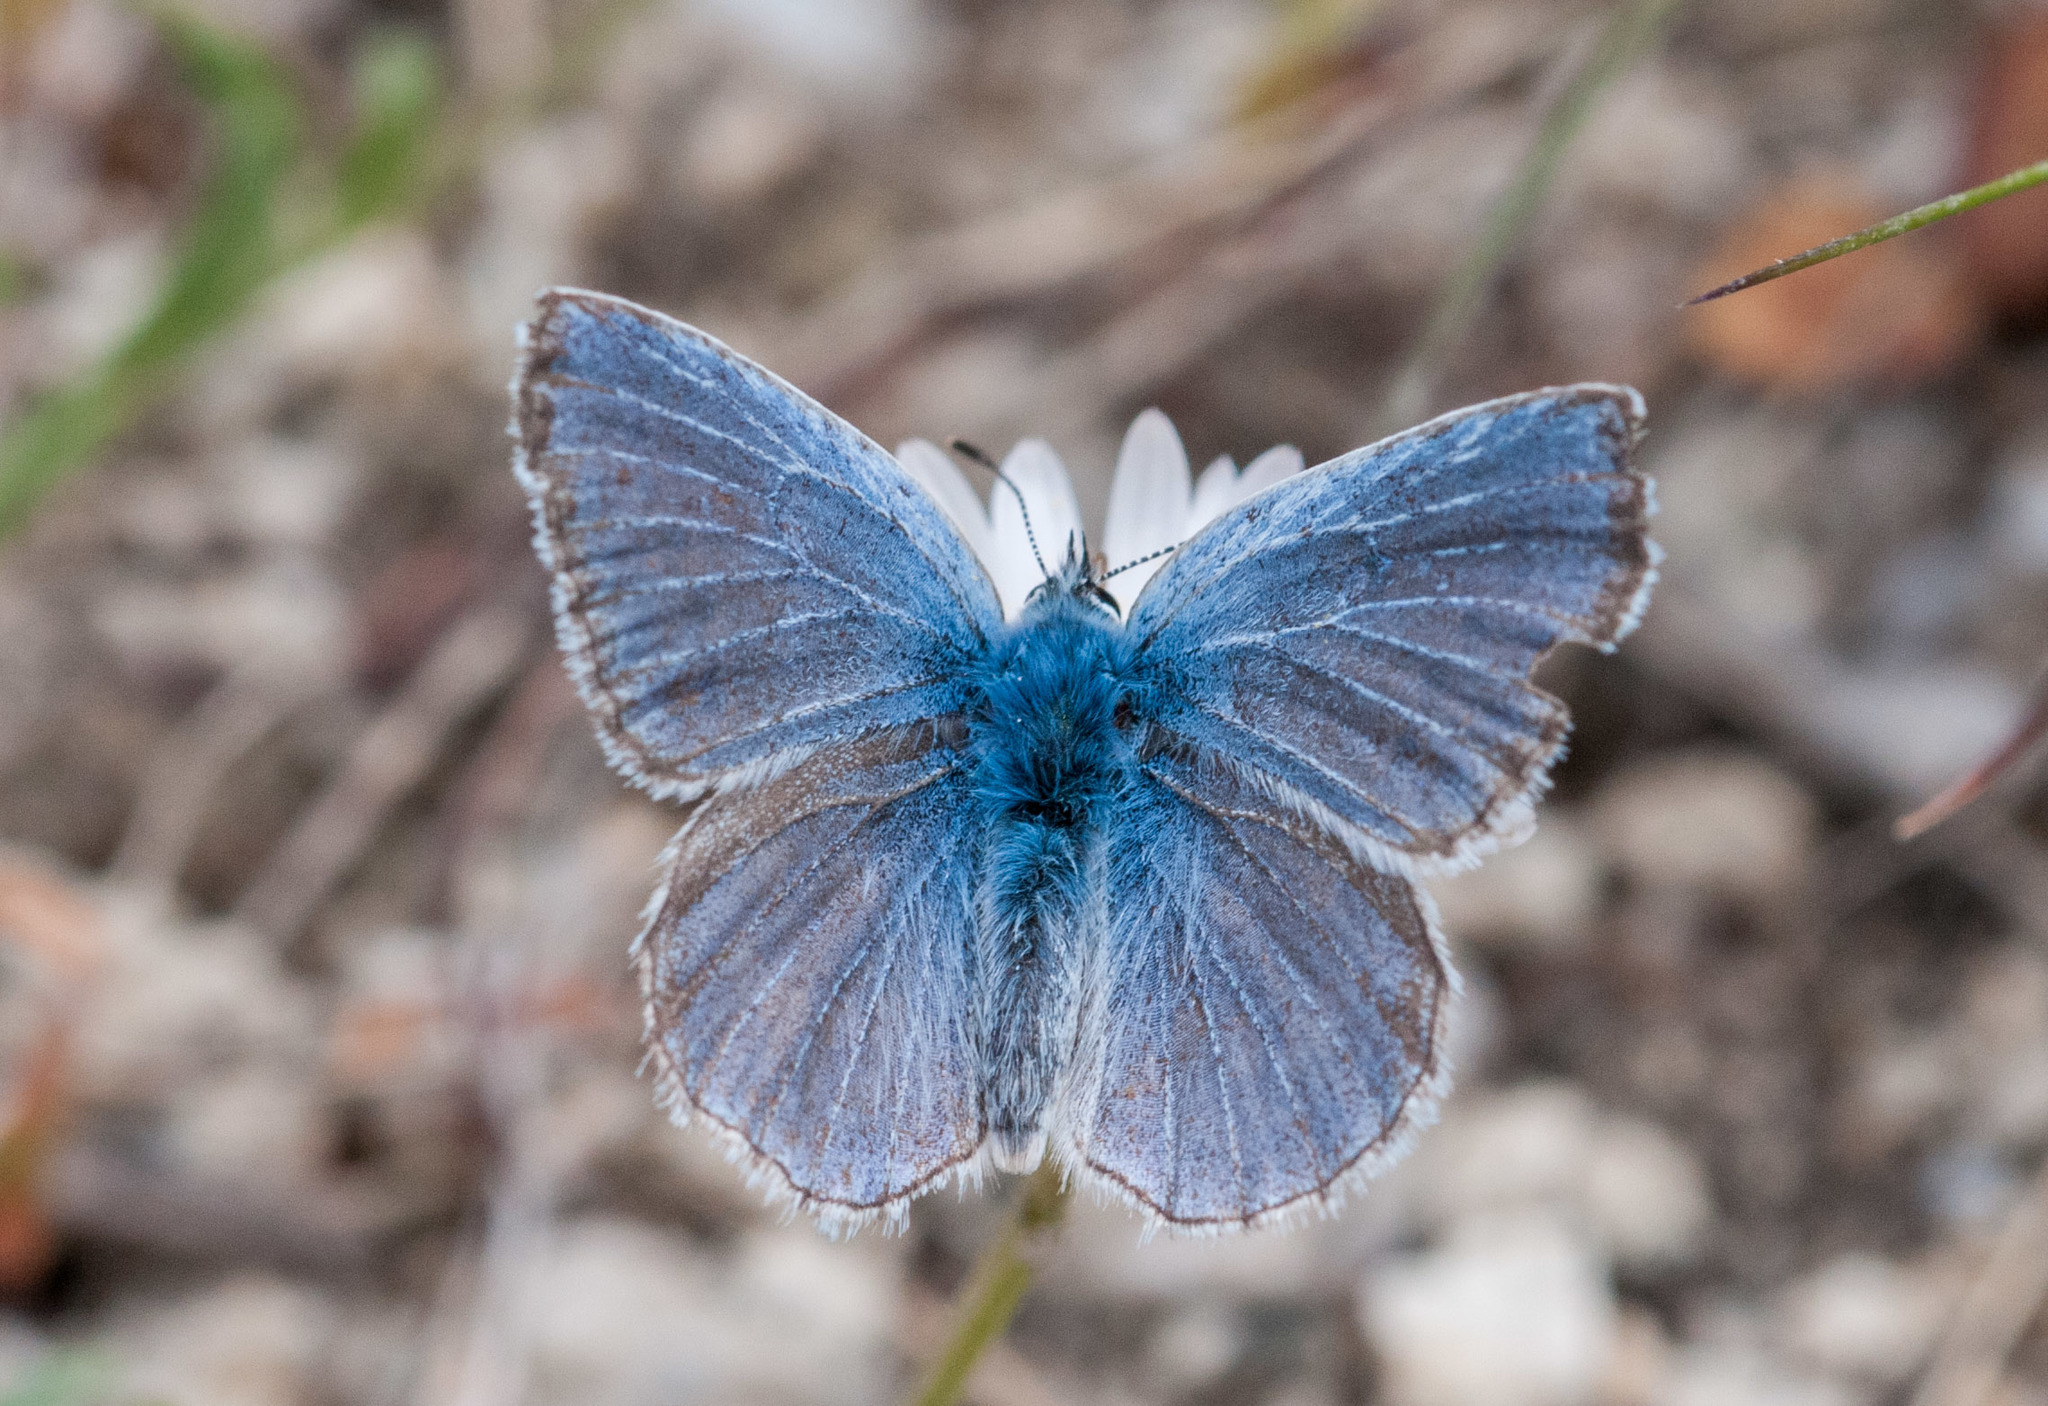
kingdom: Animalia
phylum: Arthropoda
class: Insecta
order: Lepidoptera
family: Lycaenidae
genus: Icaricia
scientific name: Icaricia icarioides
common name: Boisduval's blue
